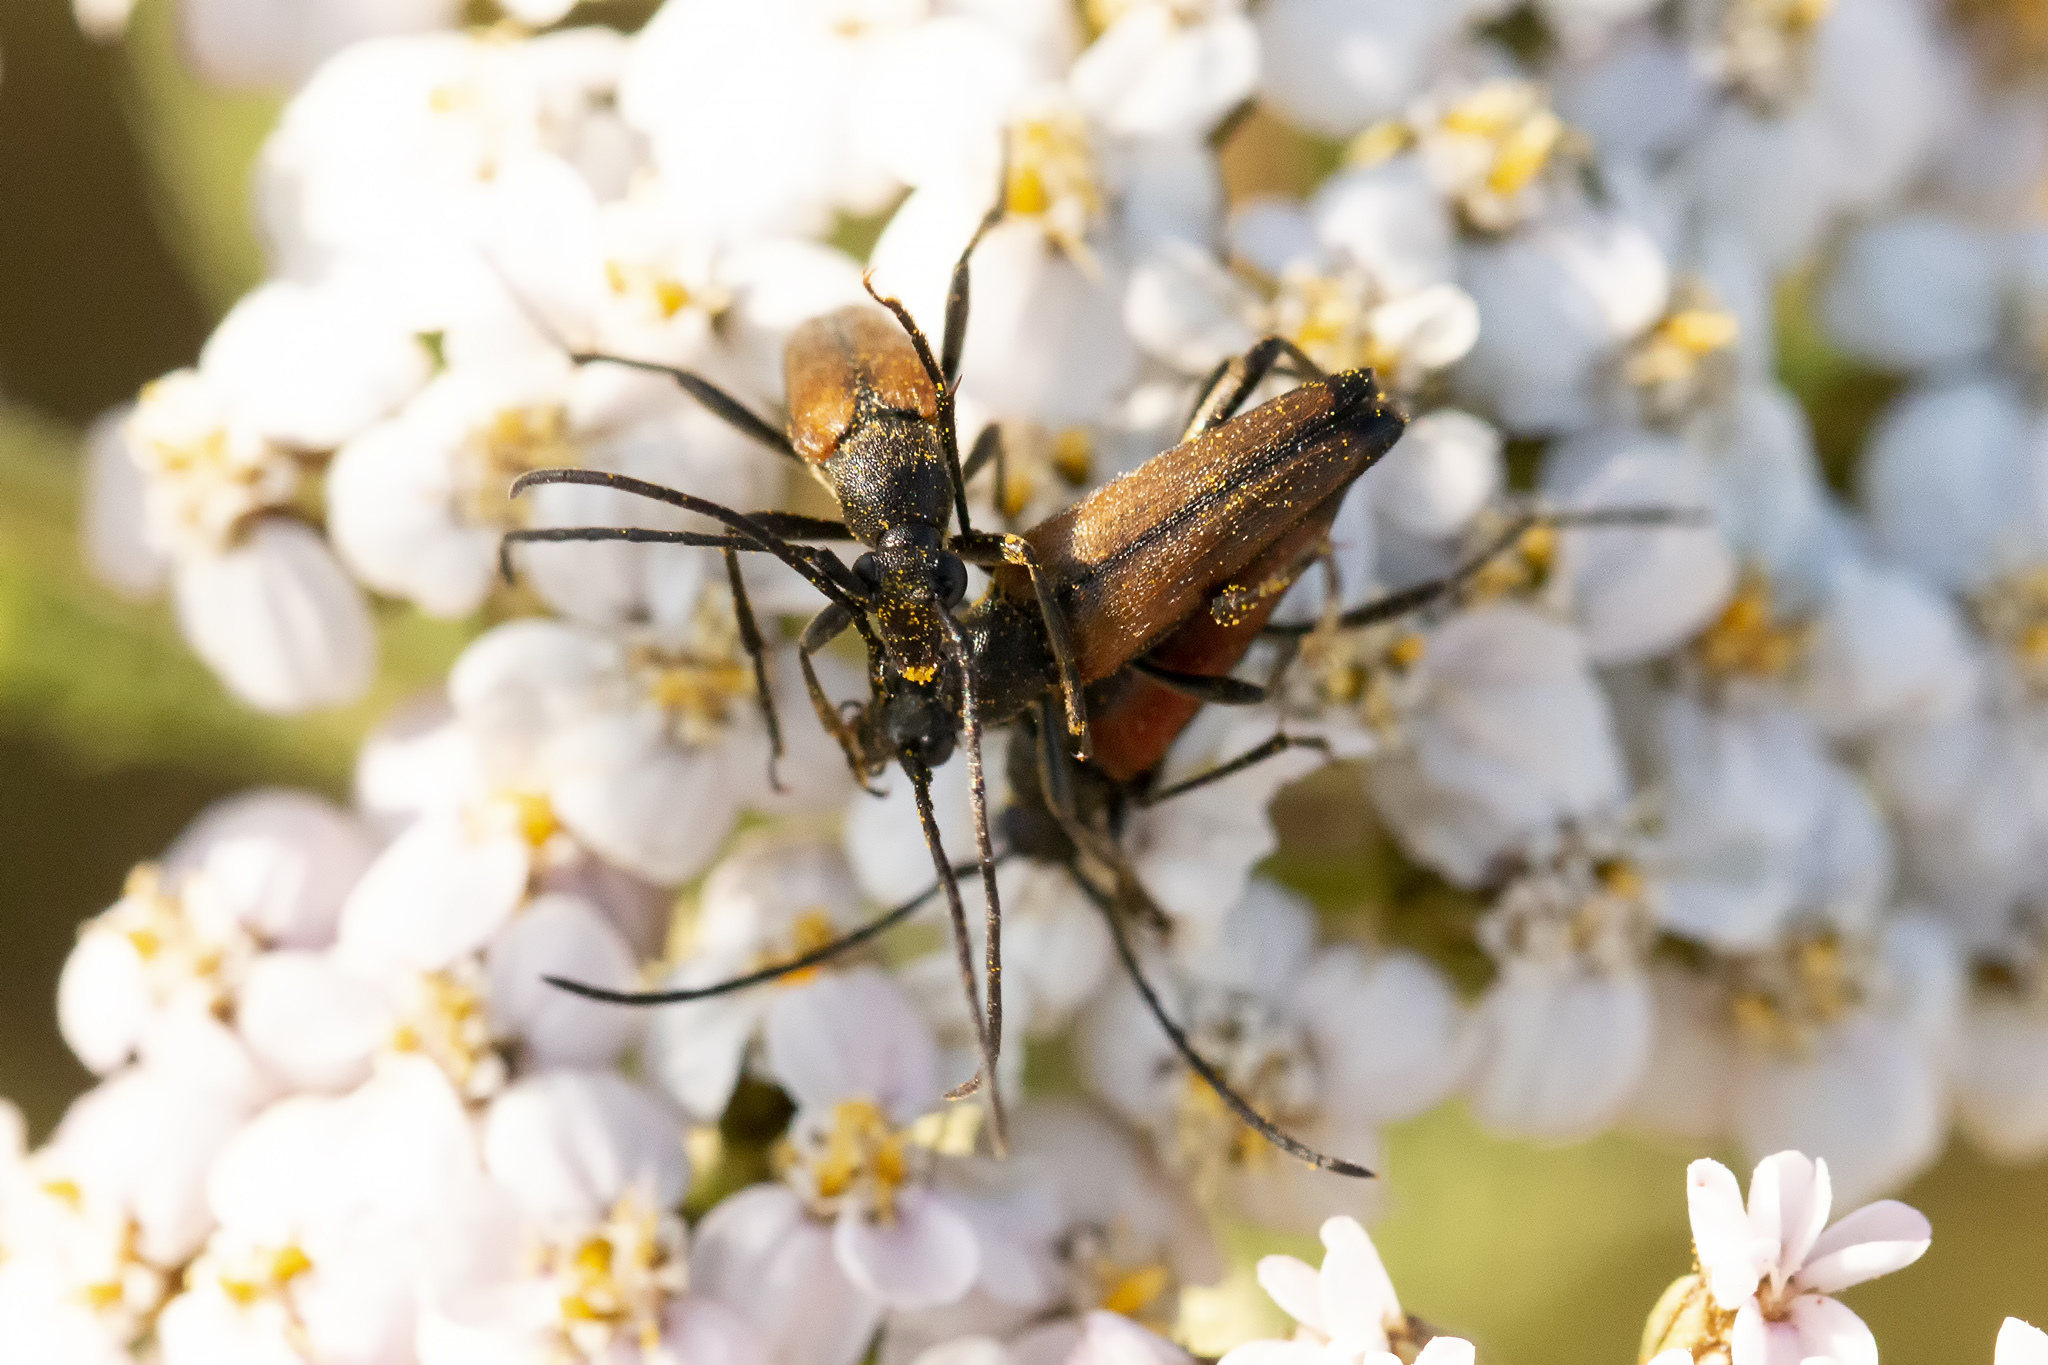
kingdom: Animalia
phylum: Arthropoda
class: Insecta
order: Coleoptera
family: Cerambycidae
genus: Stenurella
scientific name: Stenurella melanura
